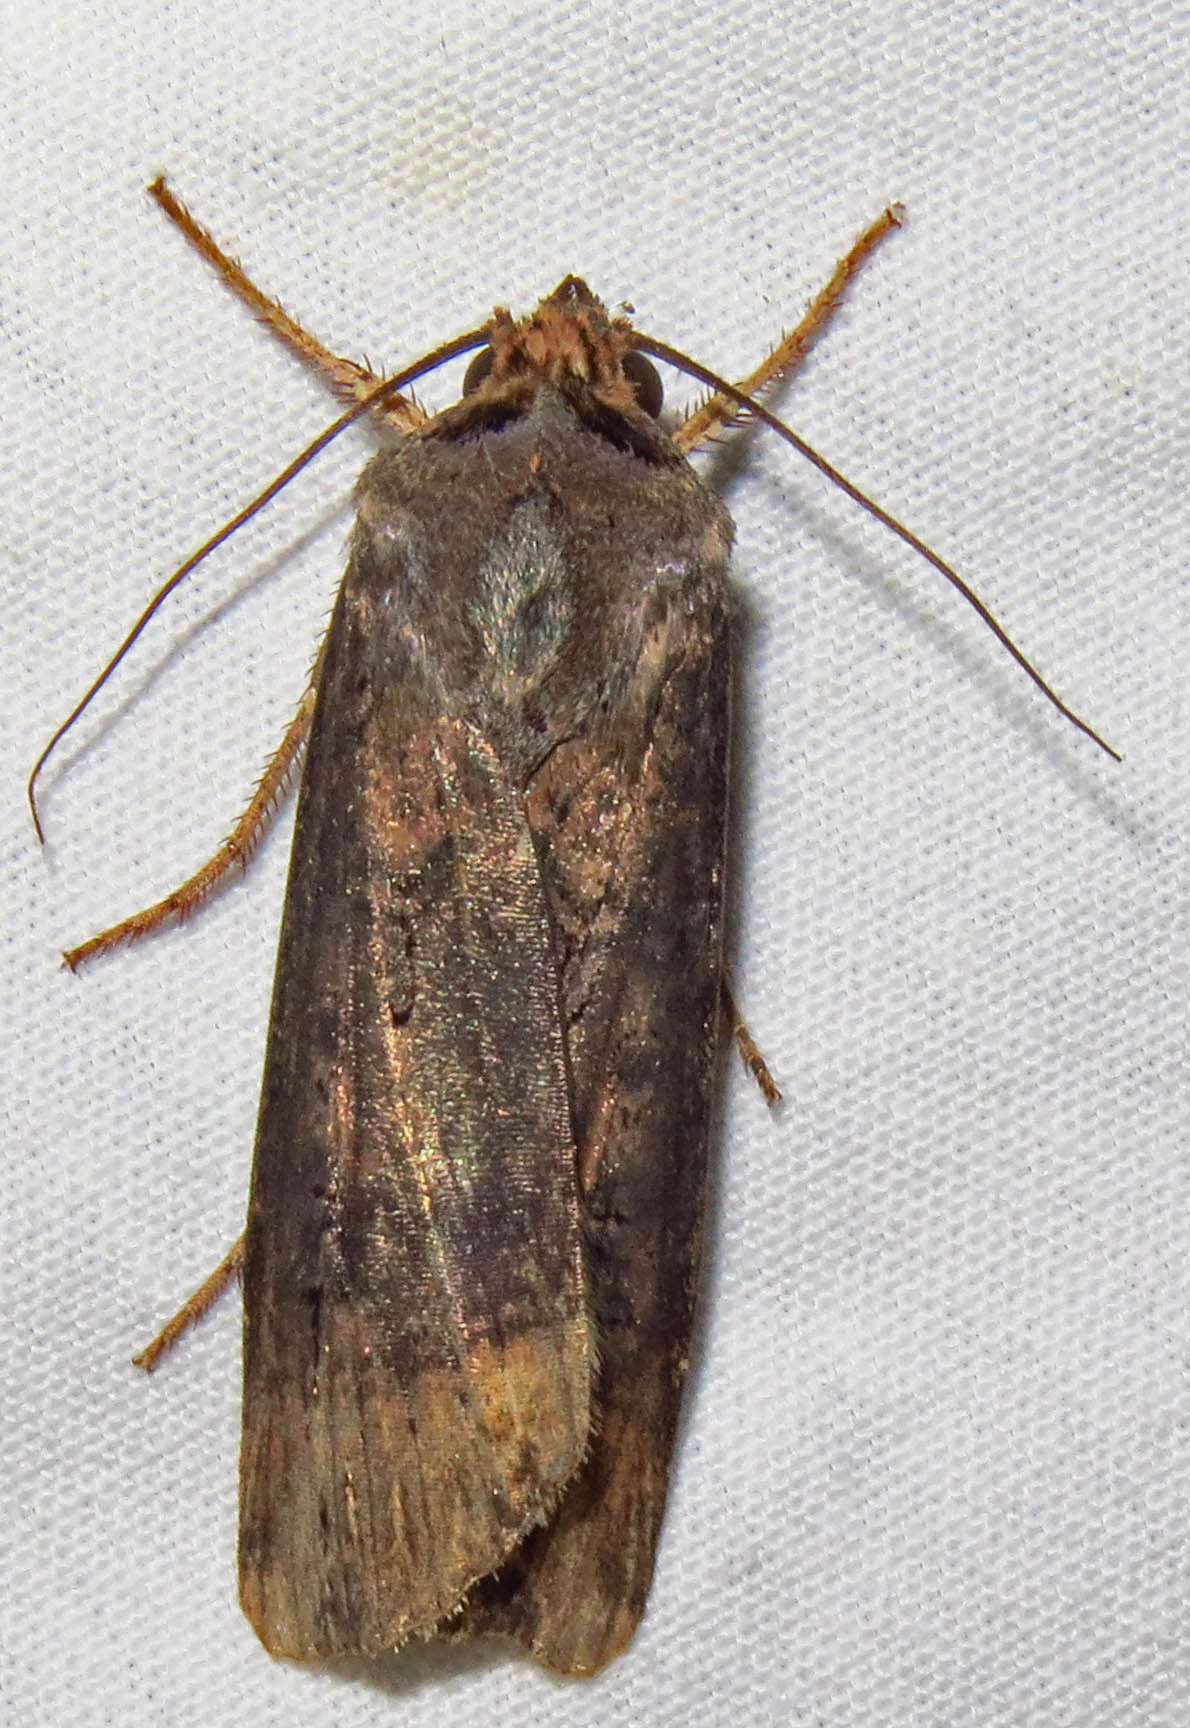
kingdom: Animalia
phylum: Arthropoda
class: Insecta
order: Lepidoptera
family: Noctuidae
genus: Agrotis
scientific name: Agrotis ipsilon
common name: Dark sword-grass
